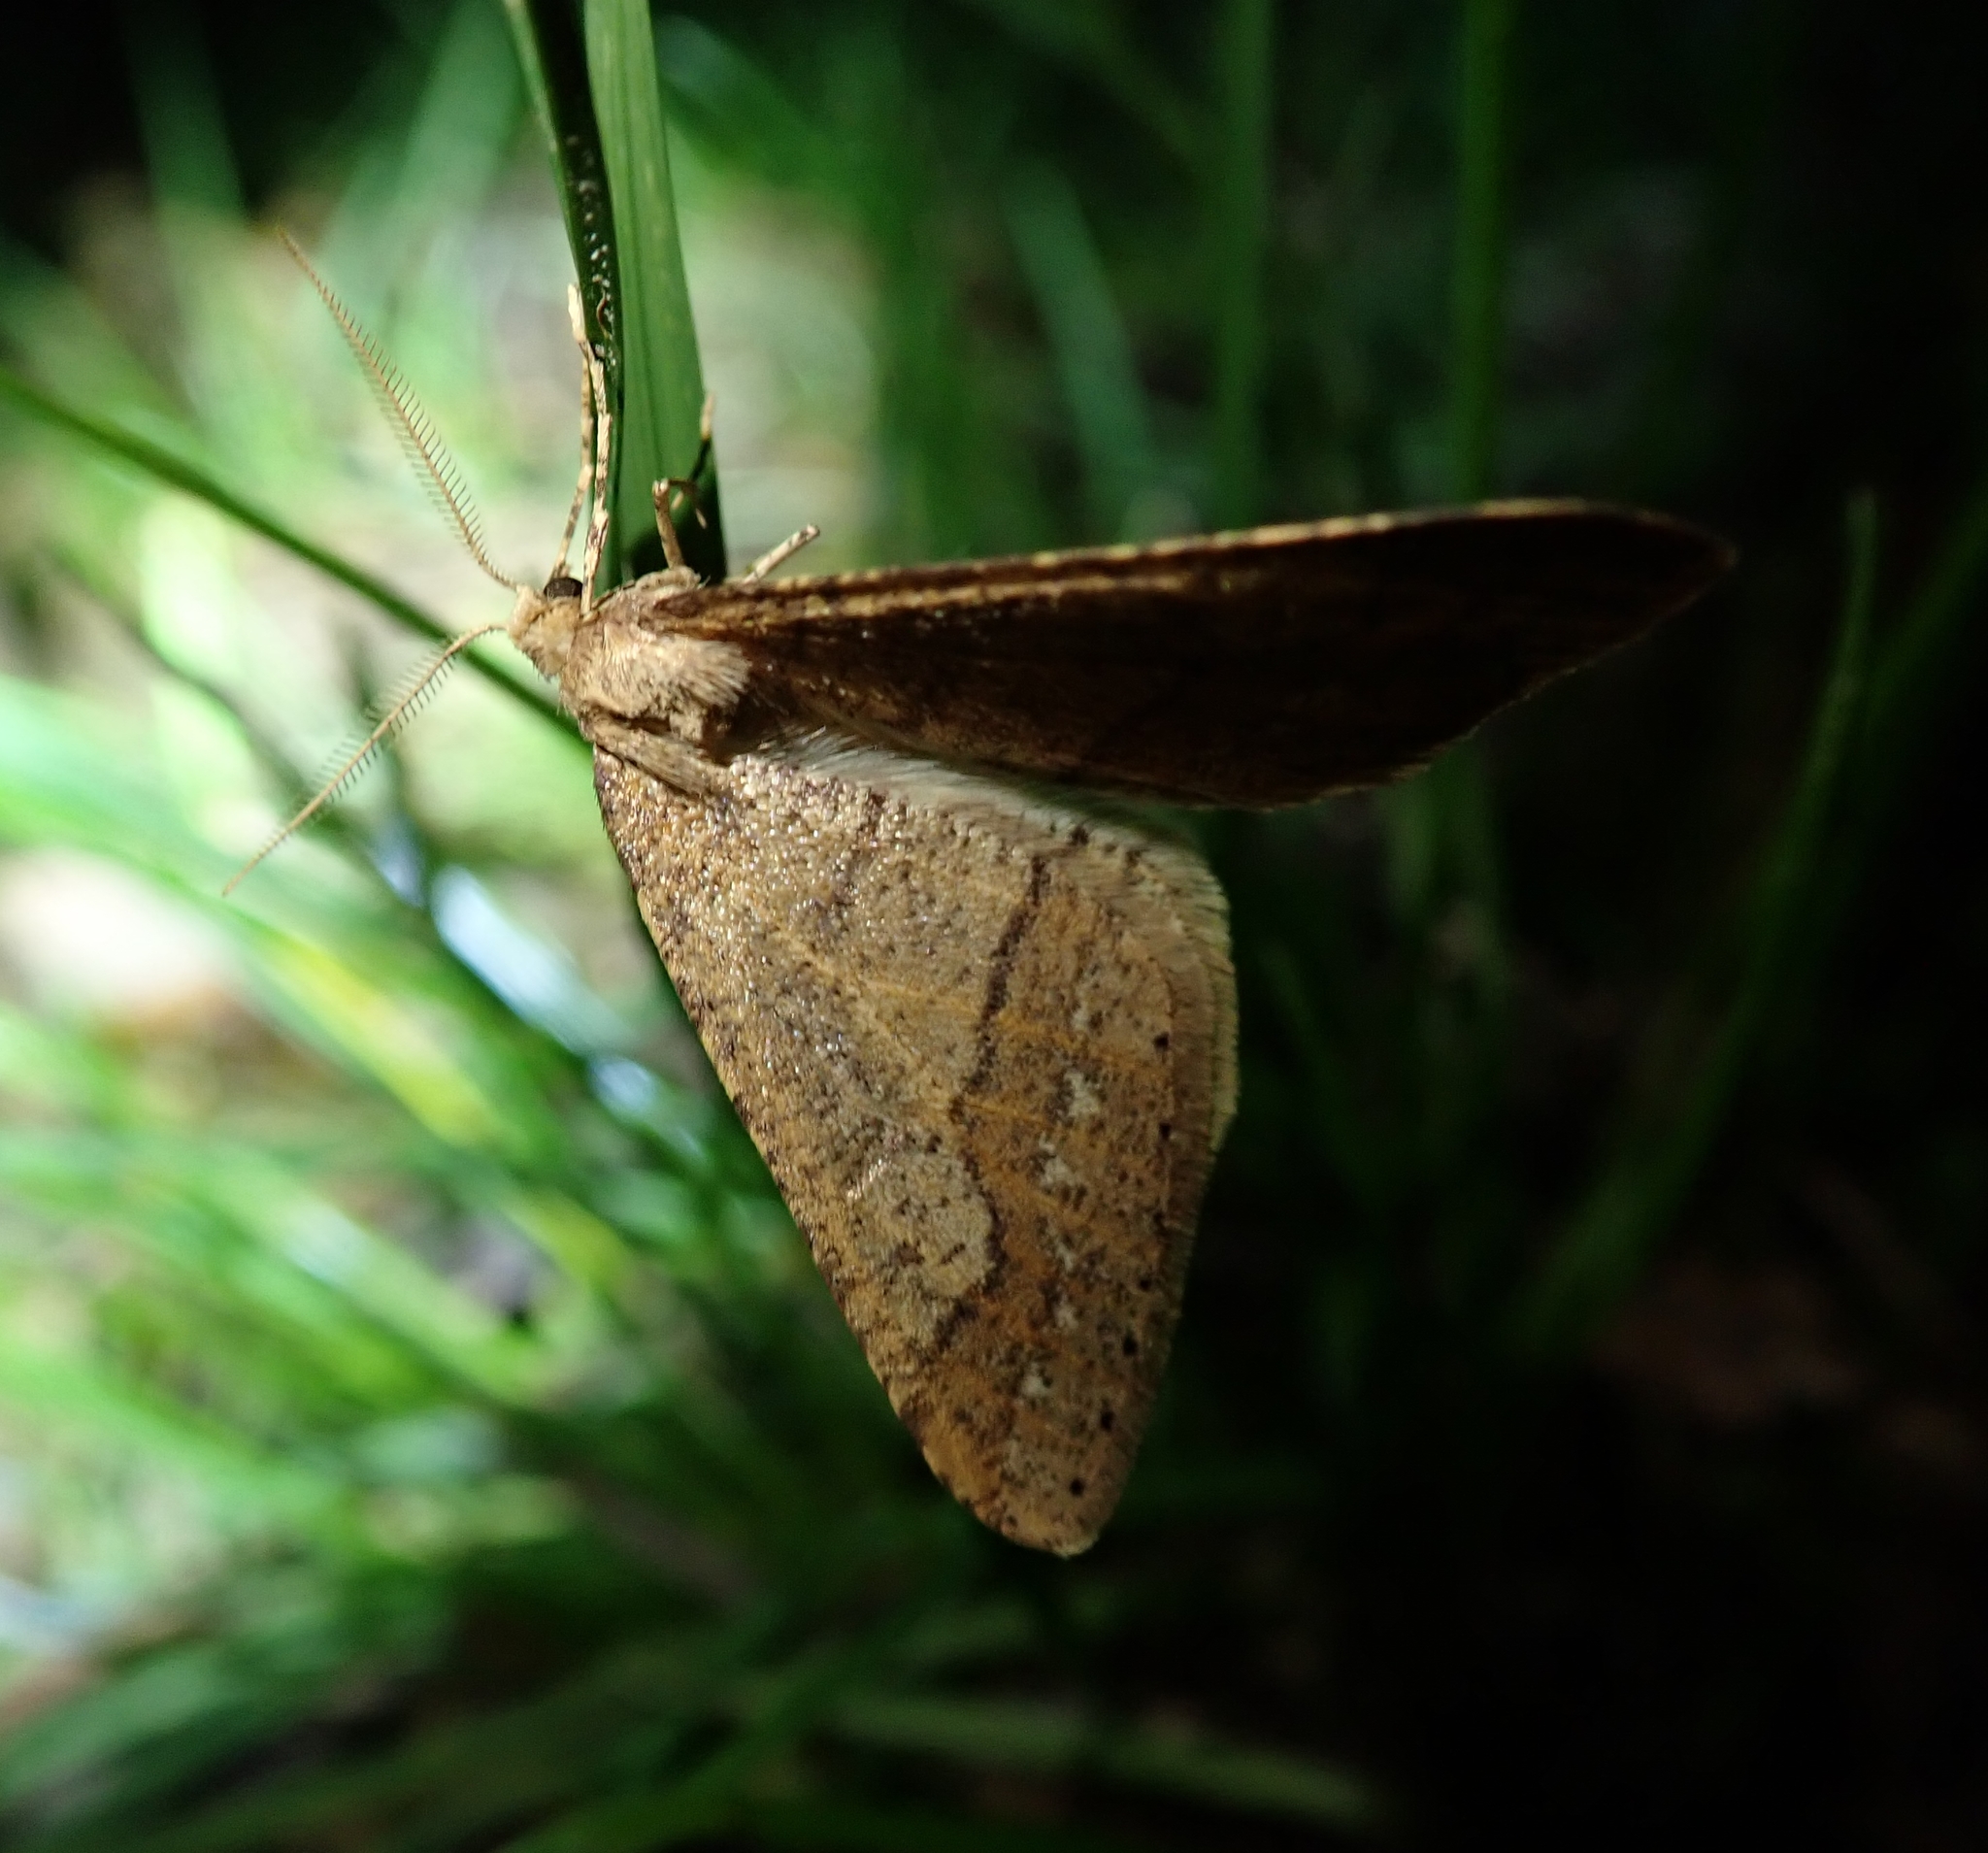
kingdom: Animalia
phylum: Arthropoda
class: Insecta
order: Lepidoptera
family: Geometridae
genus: Agriopis
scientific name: Agriopis marginaria
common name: Dotted border
